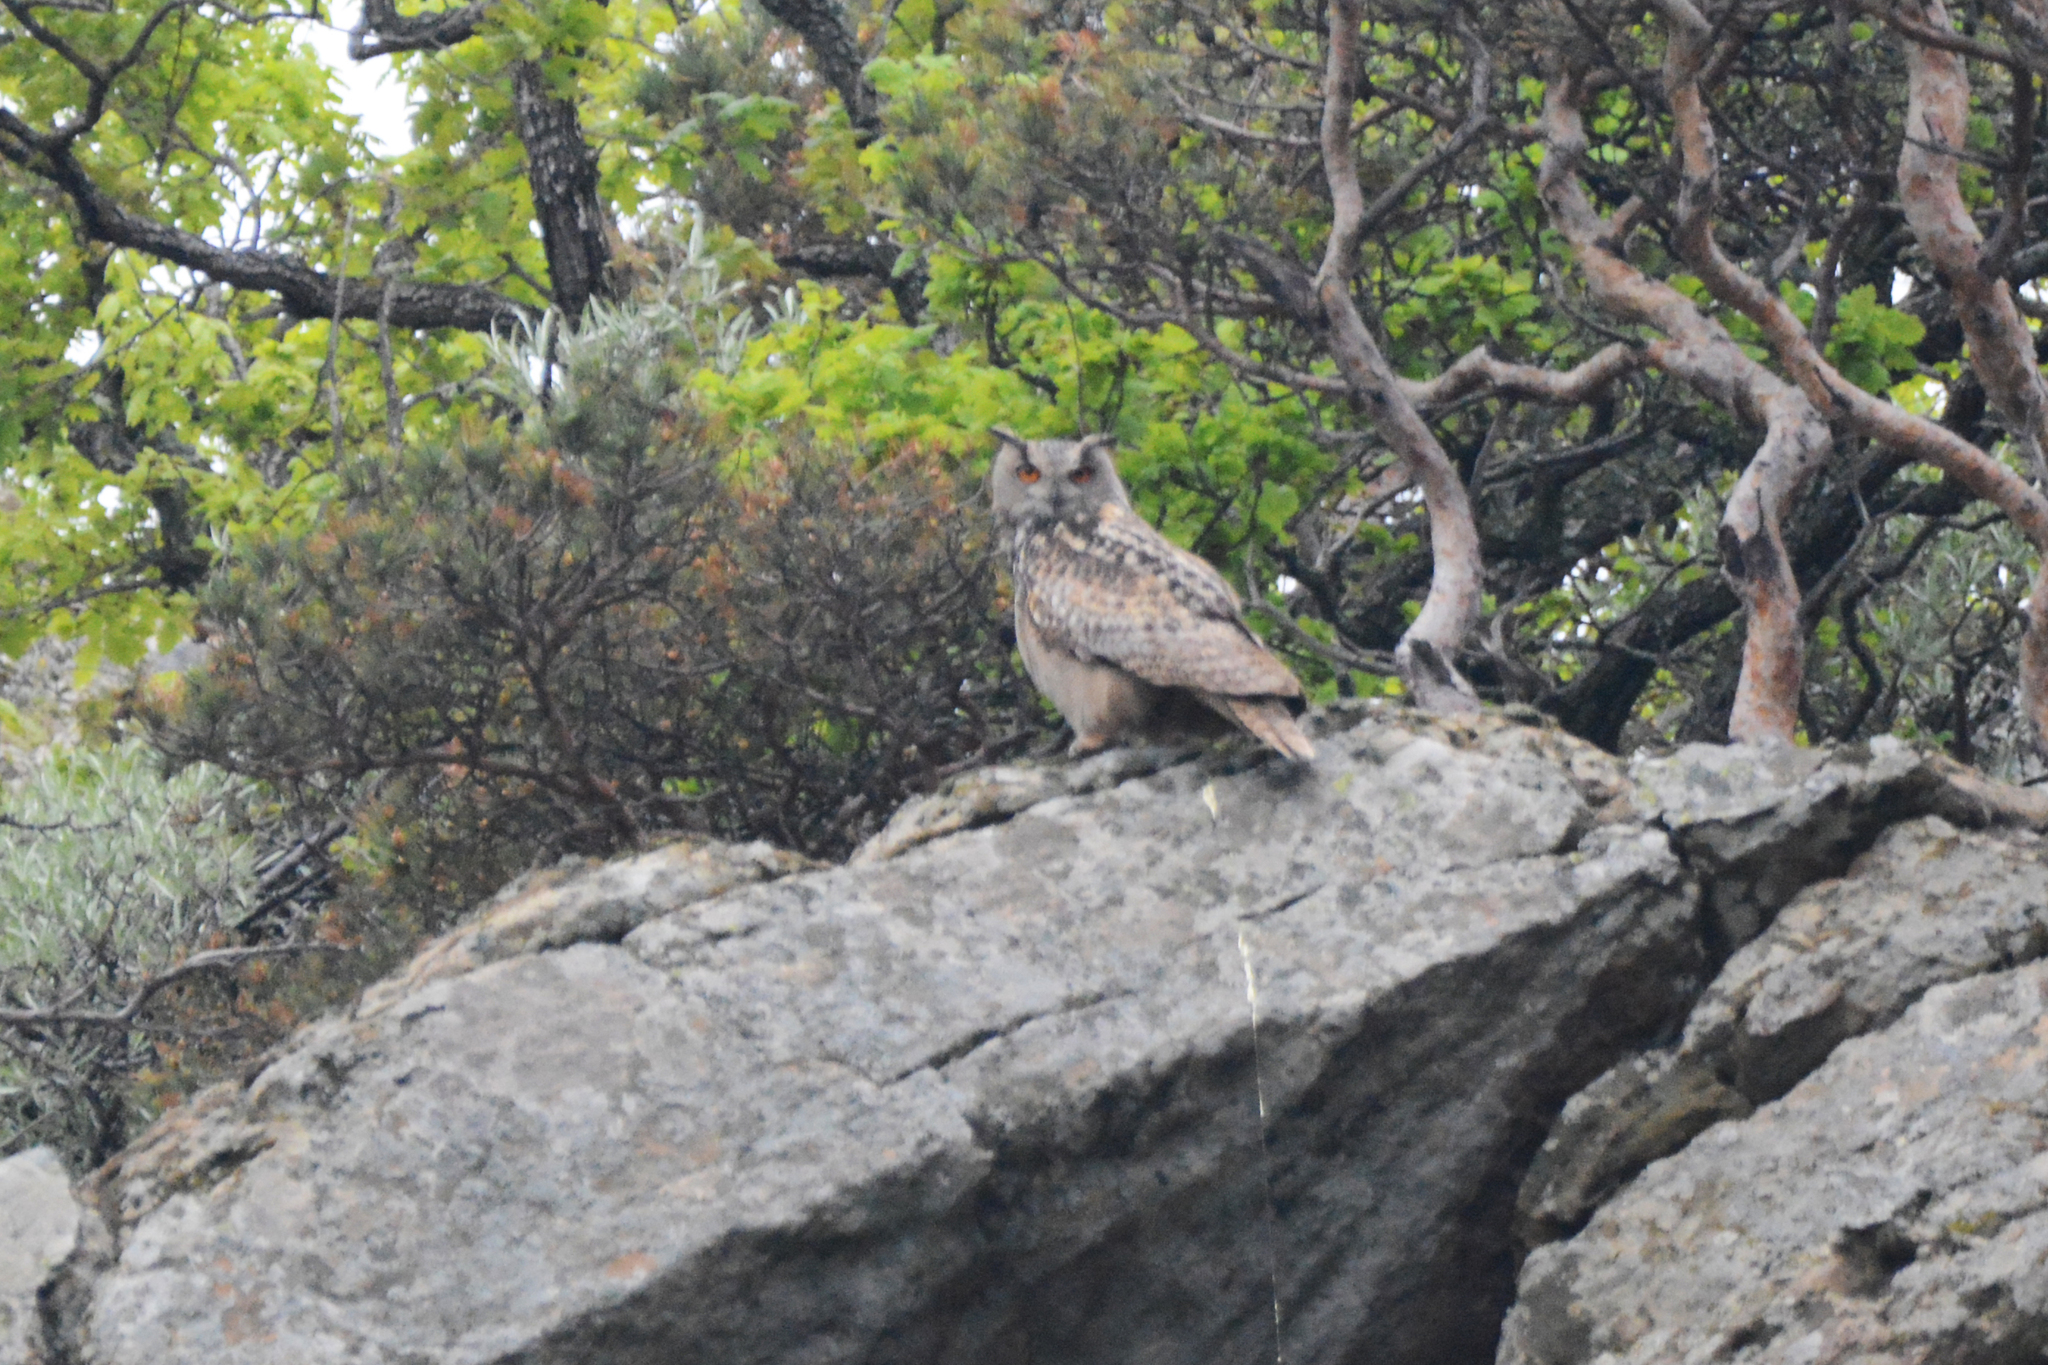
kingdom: Animalia
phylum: Chordata
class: Aves
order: Strigiformes
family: Strigidae
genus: Bubo
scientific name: Bubo bubo
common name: Eurasian eagle-owl
